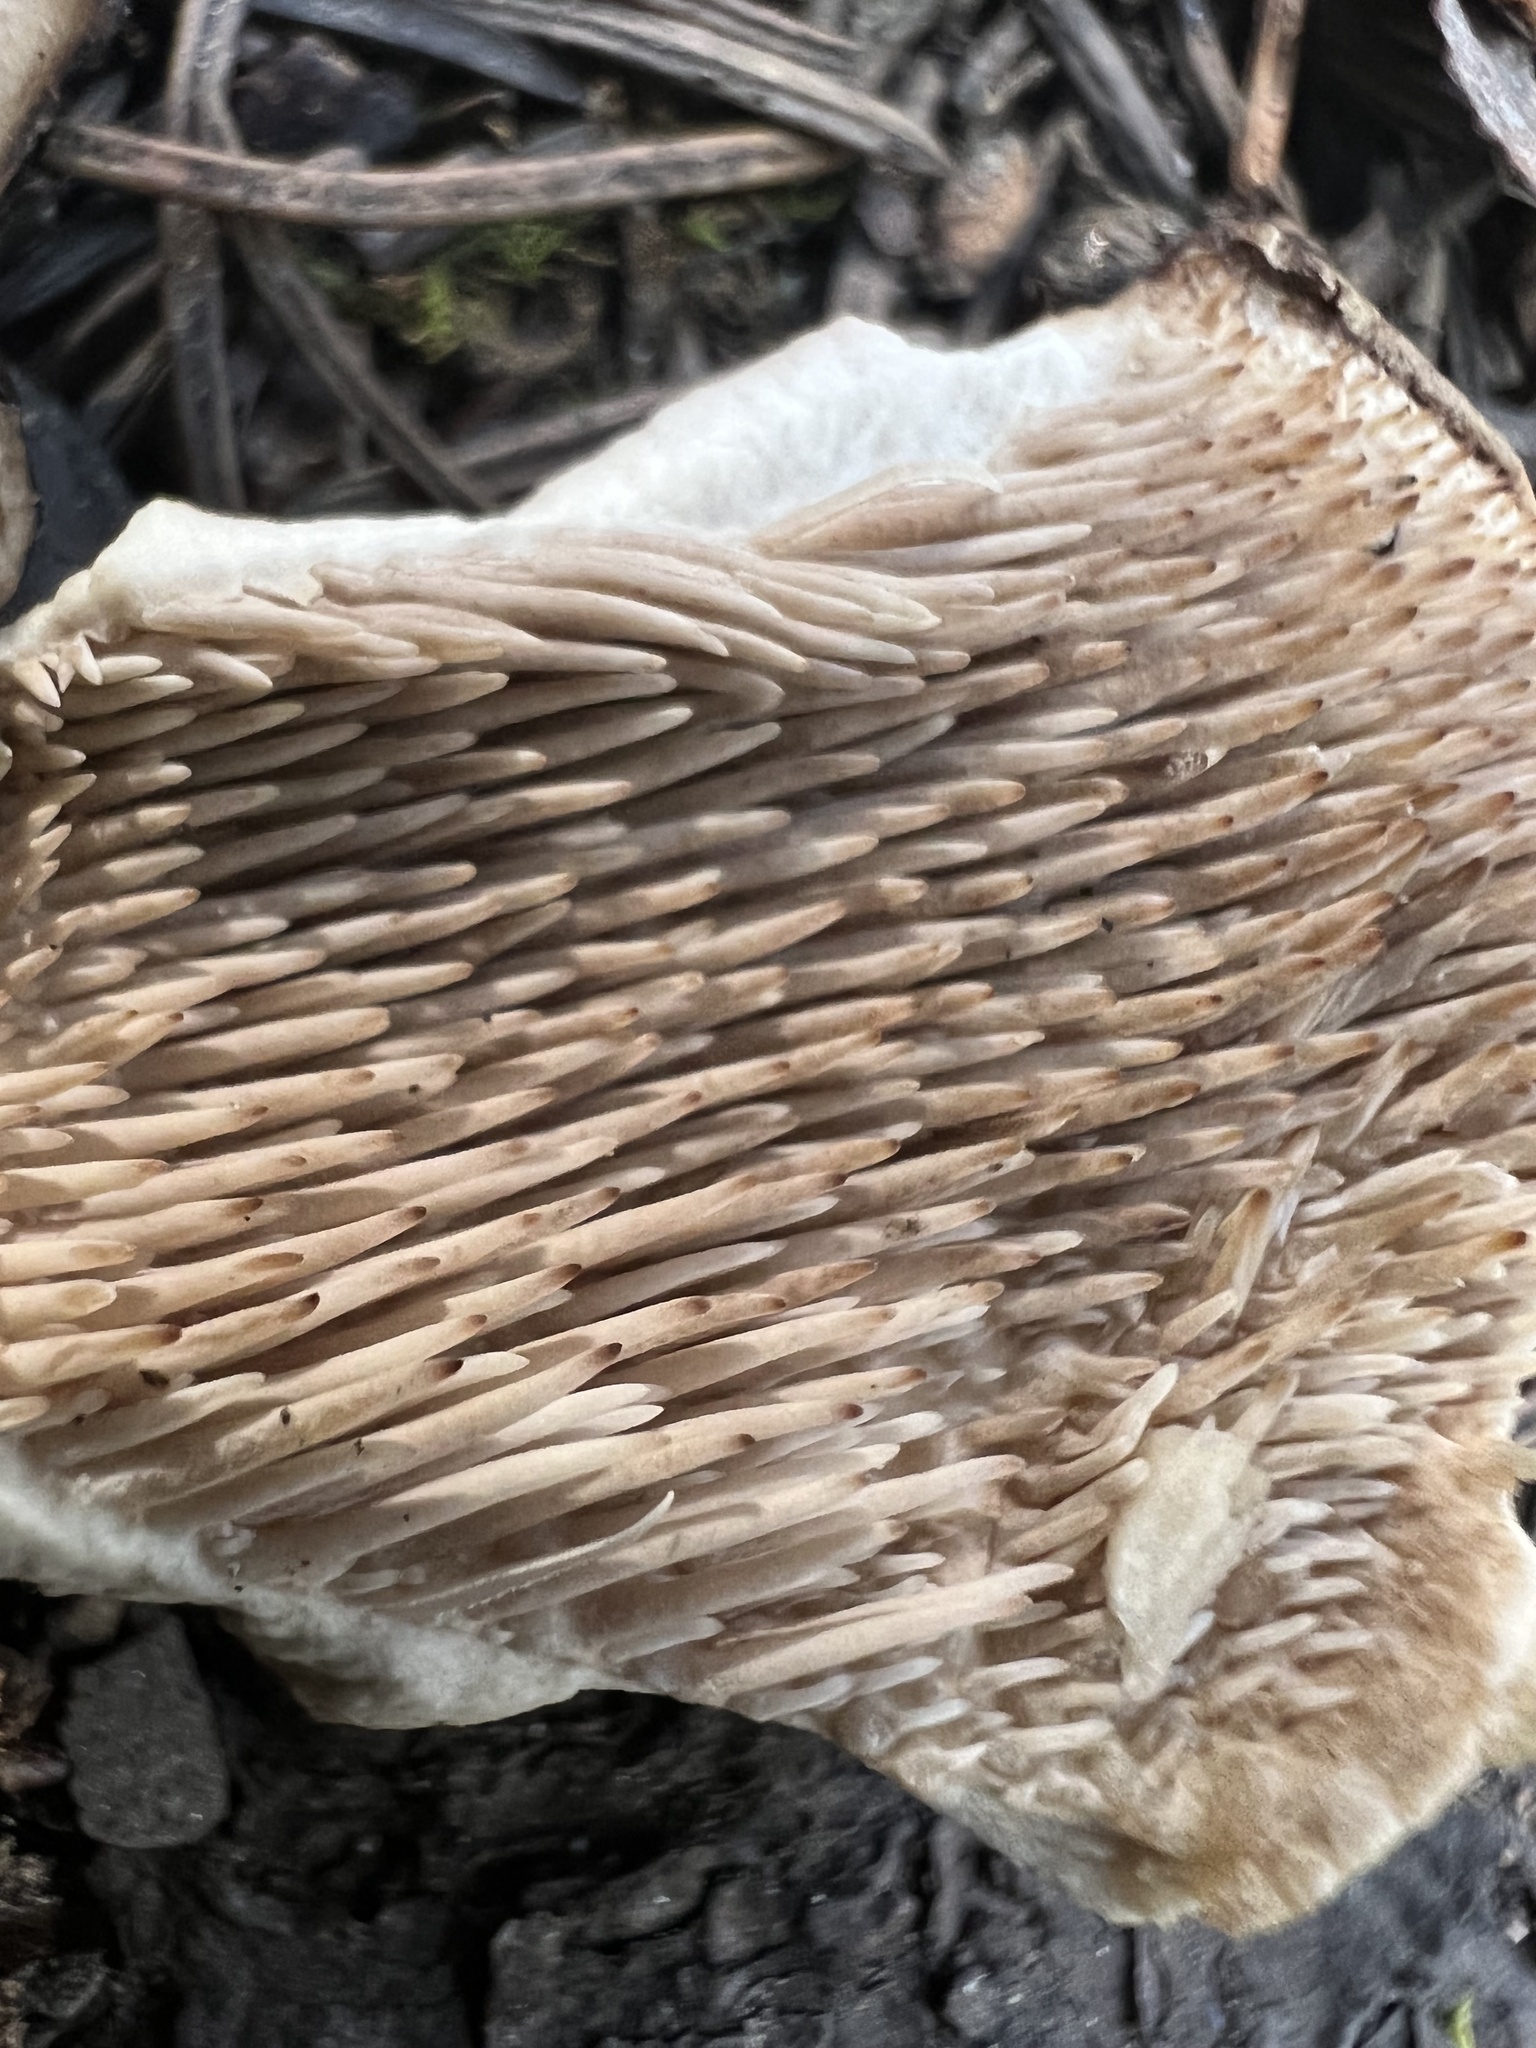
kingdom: Fungi
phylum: Basidiomycota
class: Agaricomycetes
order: Thelephorales
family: Bankeraceae
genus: Sarcodon
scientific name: Sarcodon imbricatus
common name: Shingled hedgehog
